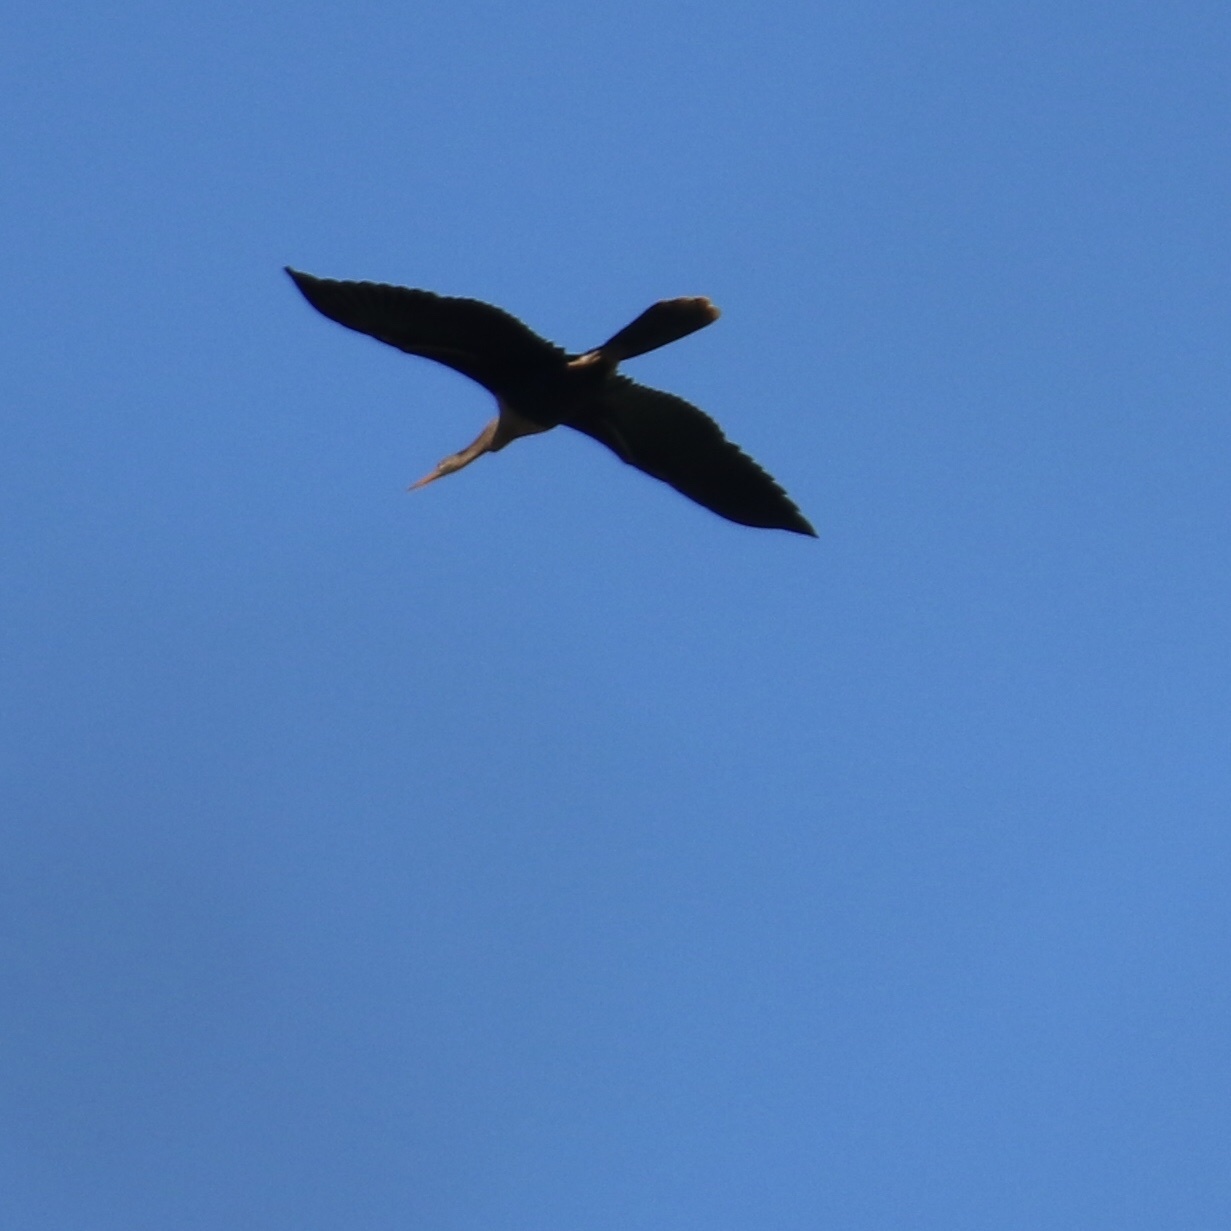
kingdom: Animalia
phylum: Chordata
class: Aves
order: Suliformes
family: Anhingidae
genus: Anhinga
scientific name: Anhinga anhinga
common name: Anhinga
